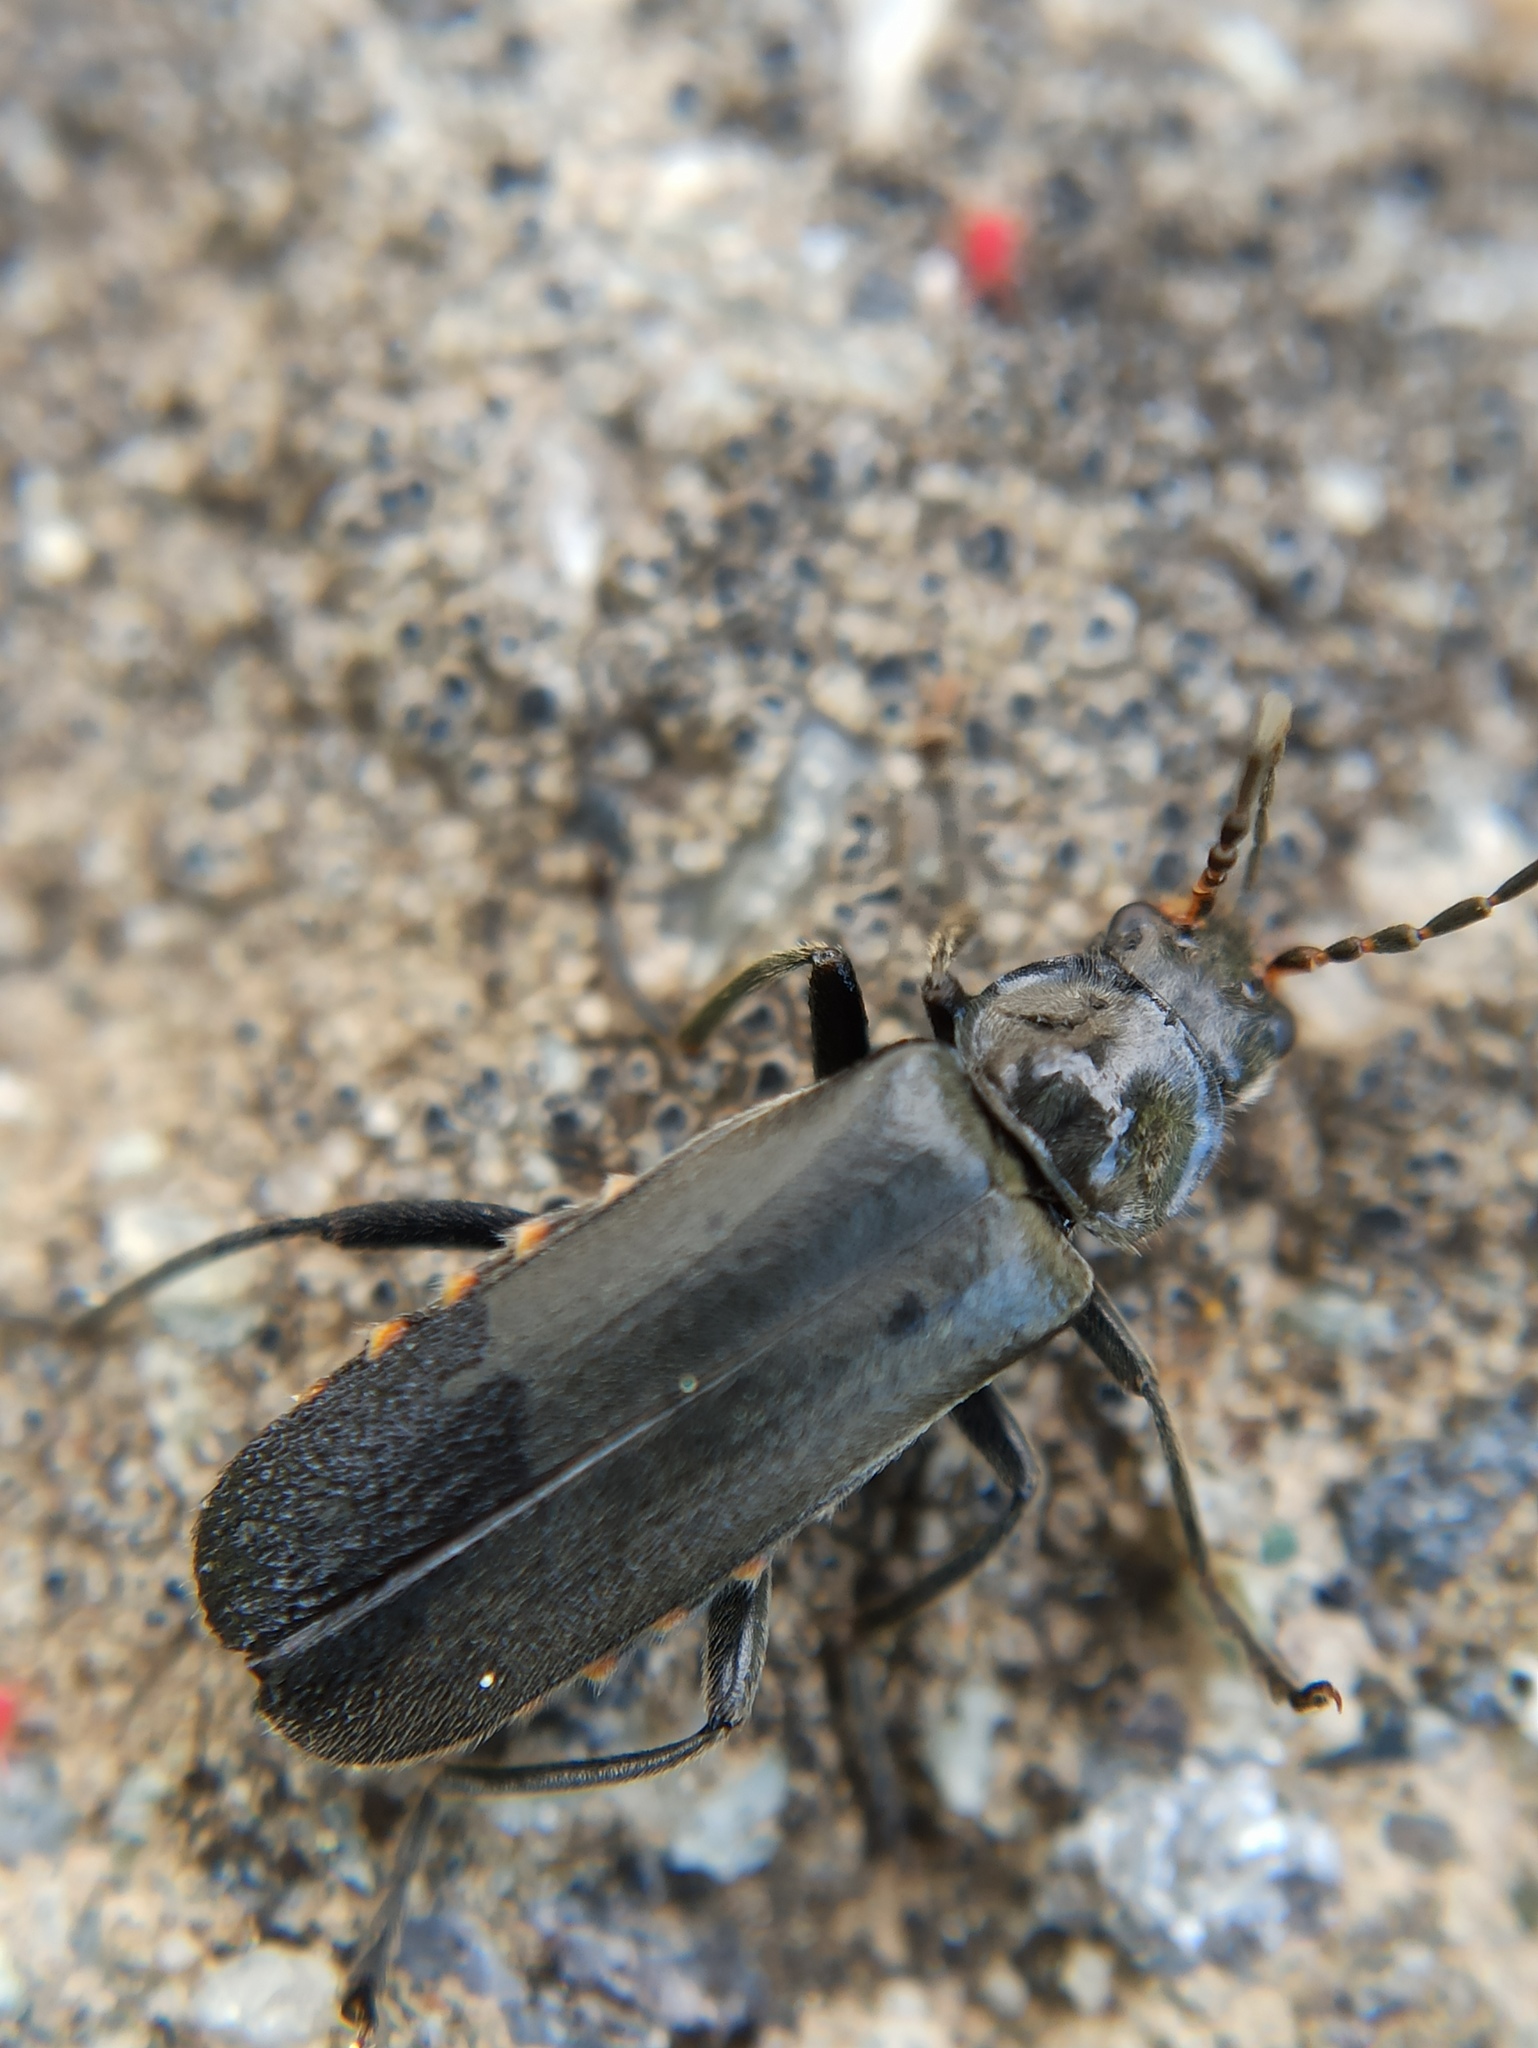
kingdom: Animalia
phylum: Arthropoda
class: Insecta
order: Coleoptera
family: Cantharidae
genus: Cantharis
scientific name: Cantharis tristis
